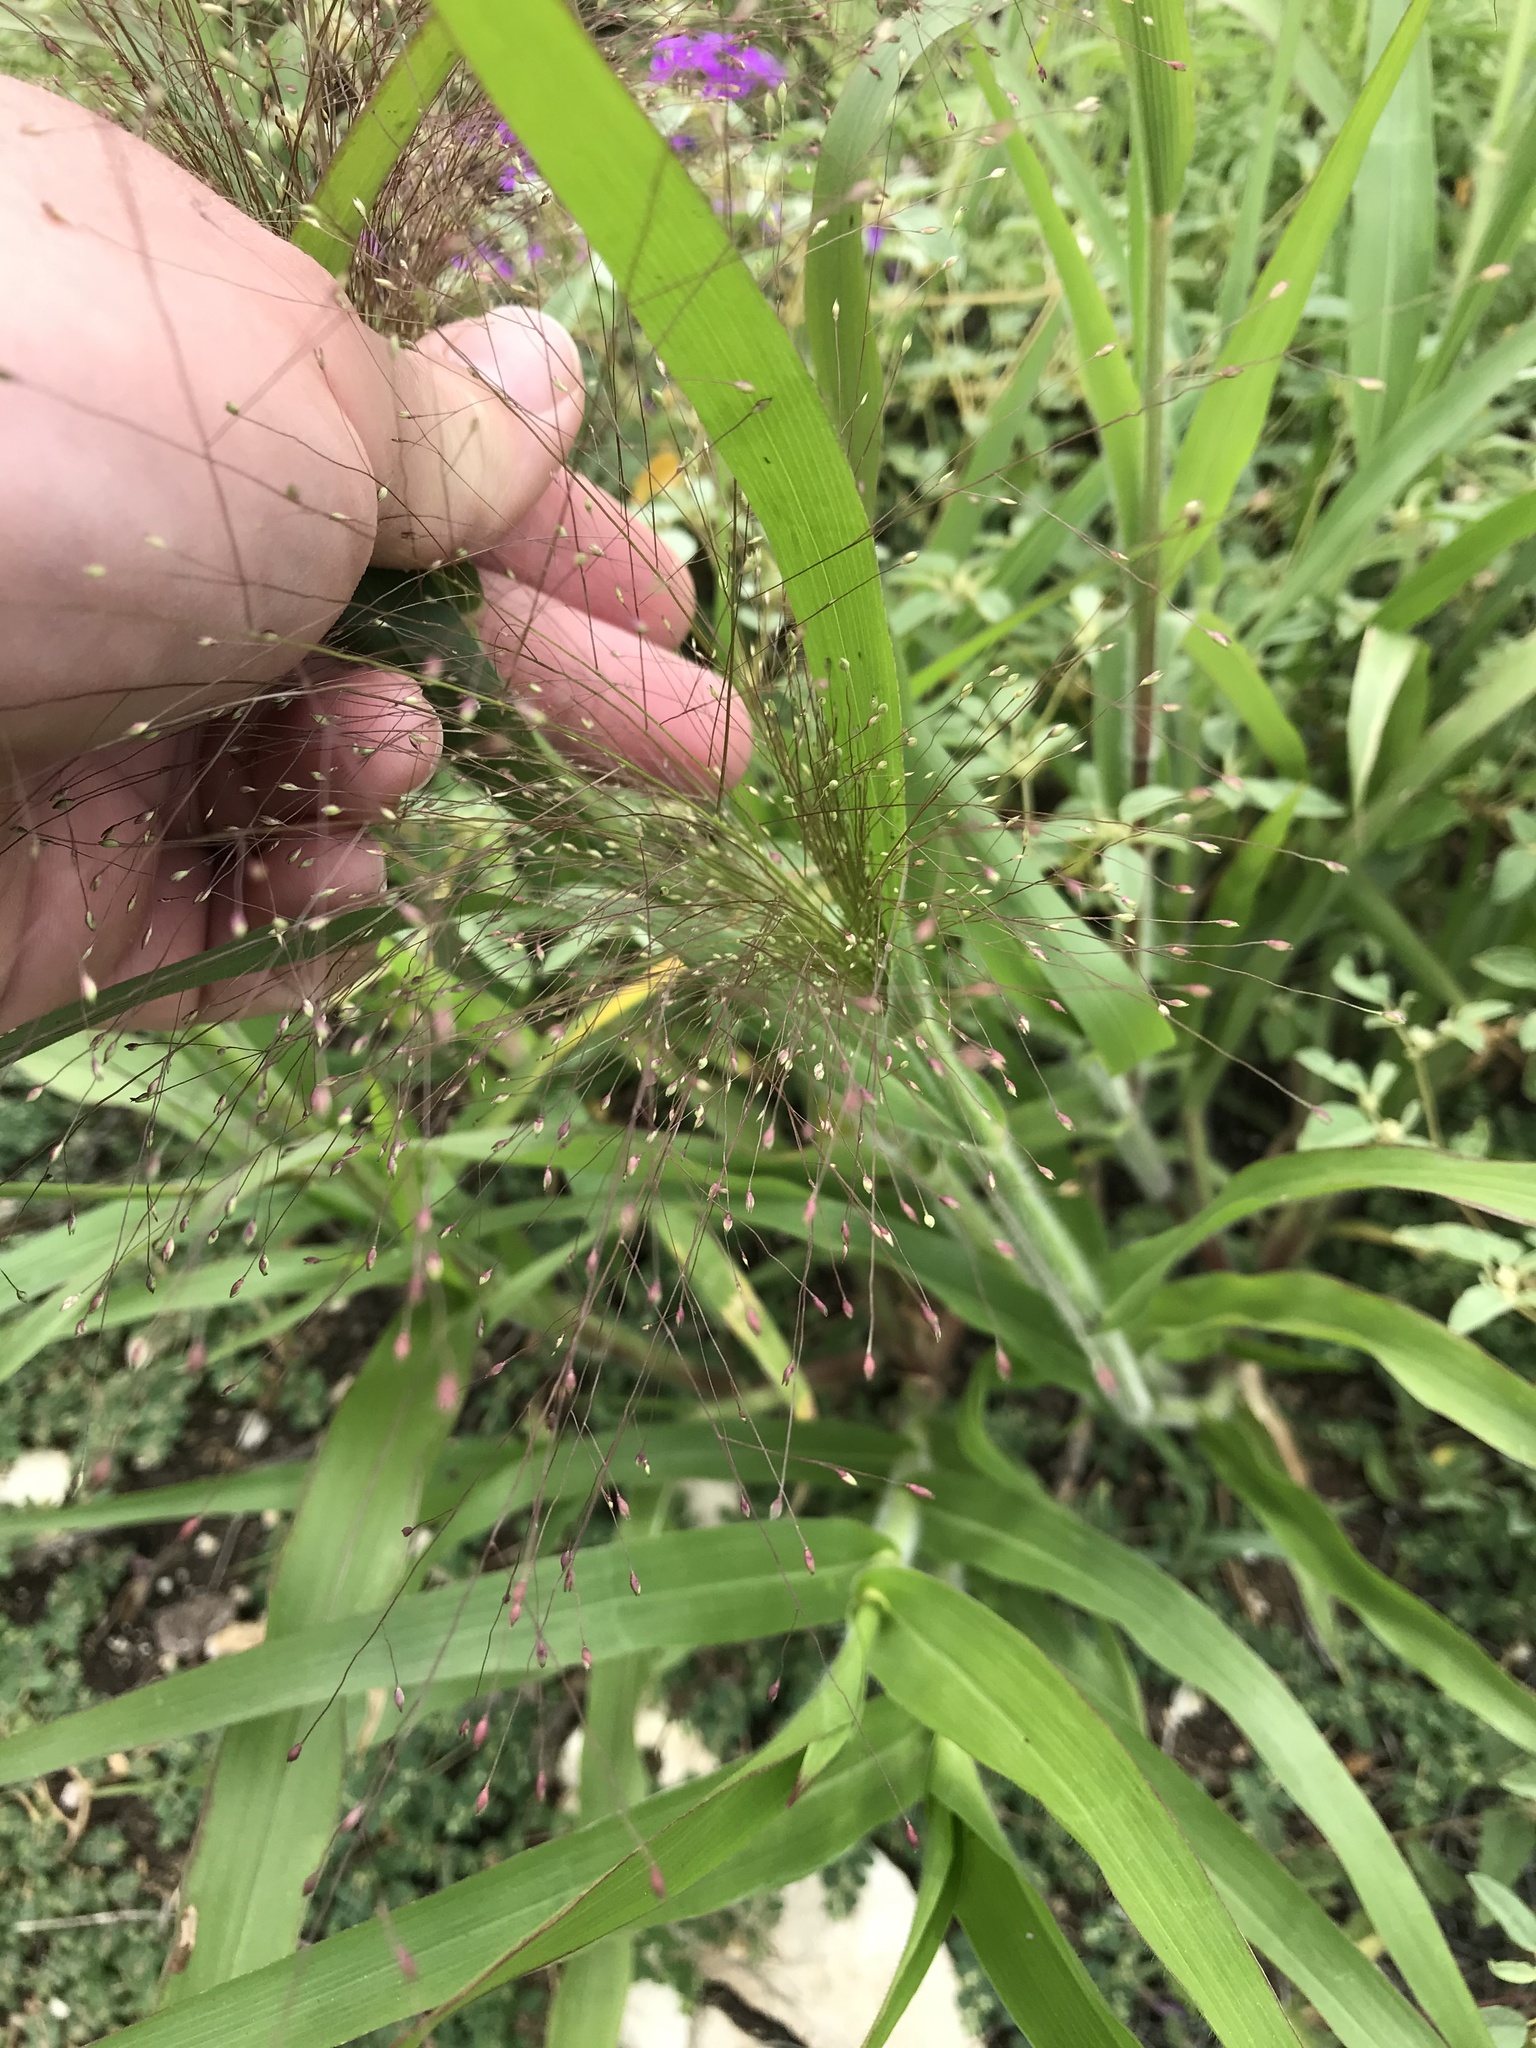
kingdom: Plantae
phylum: Tracheophyta
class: Liliopsida
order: Poales
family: Poaceae
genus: Panicum
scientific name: Panicum capillare
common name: Witch-grass
